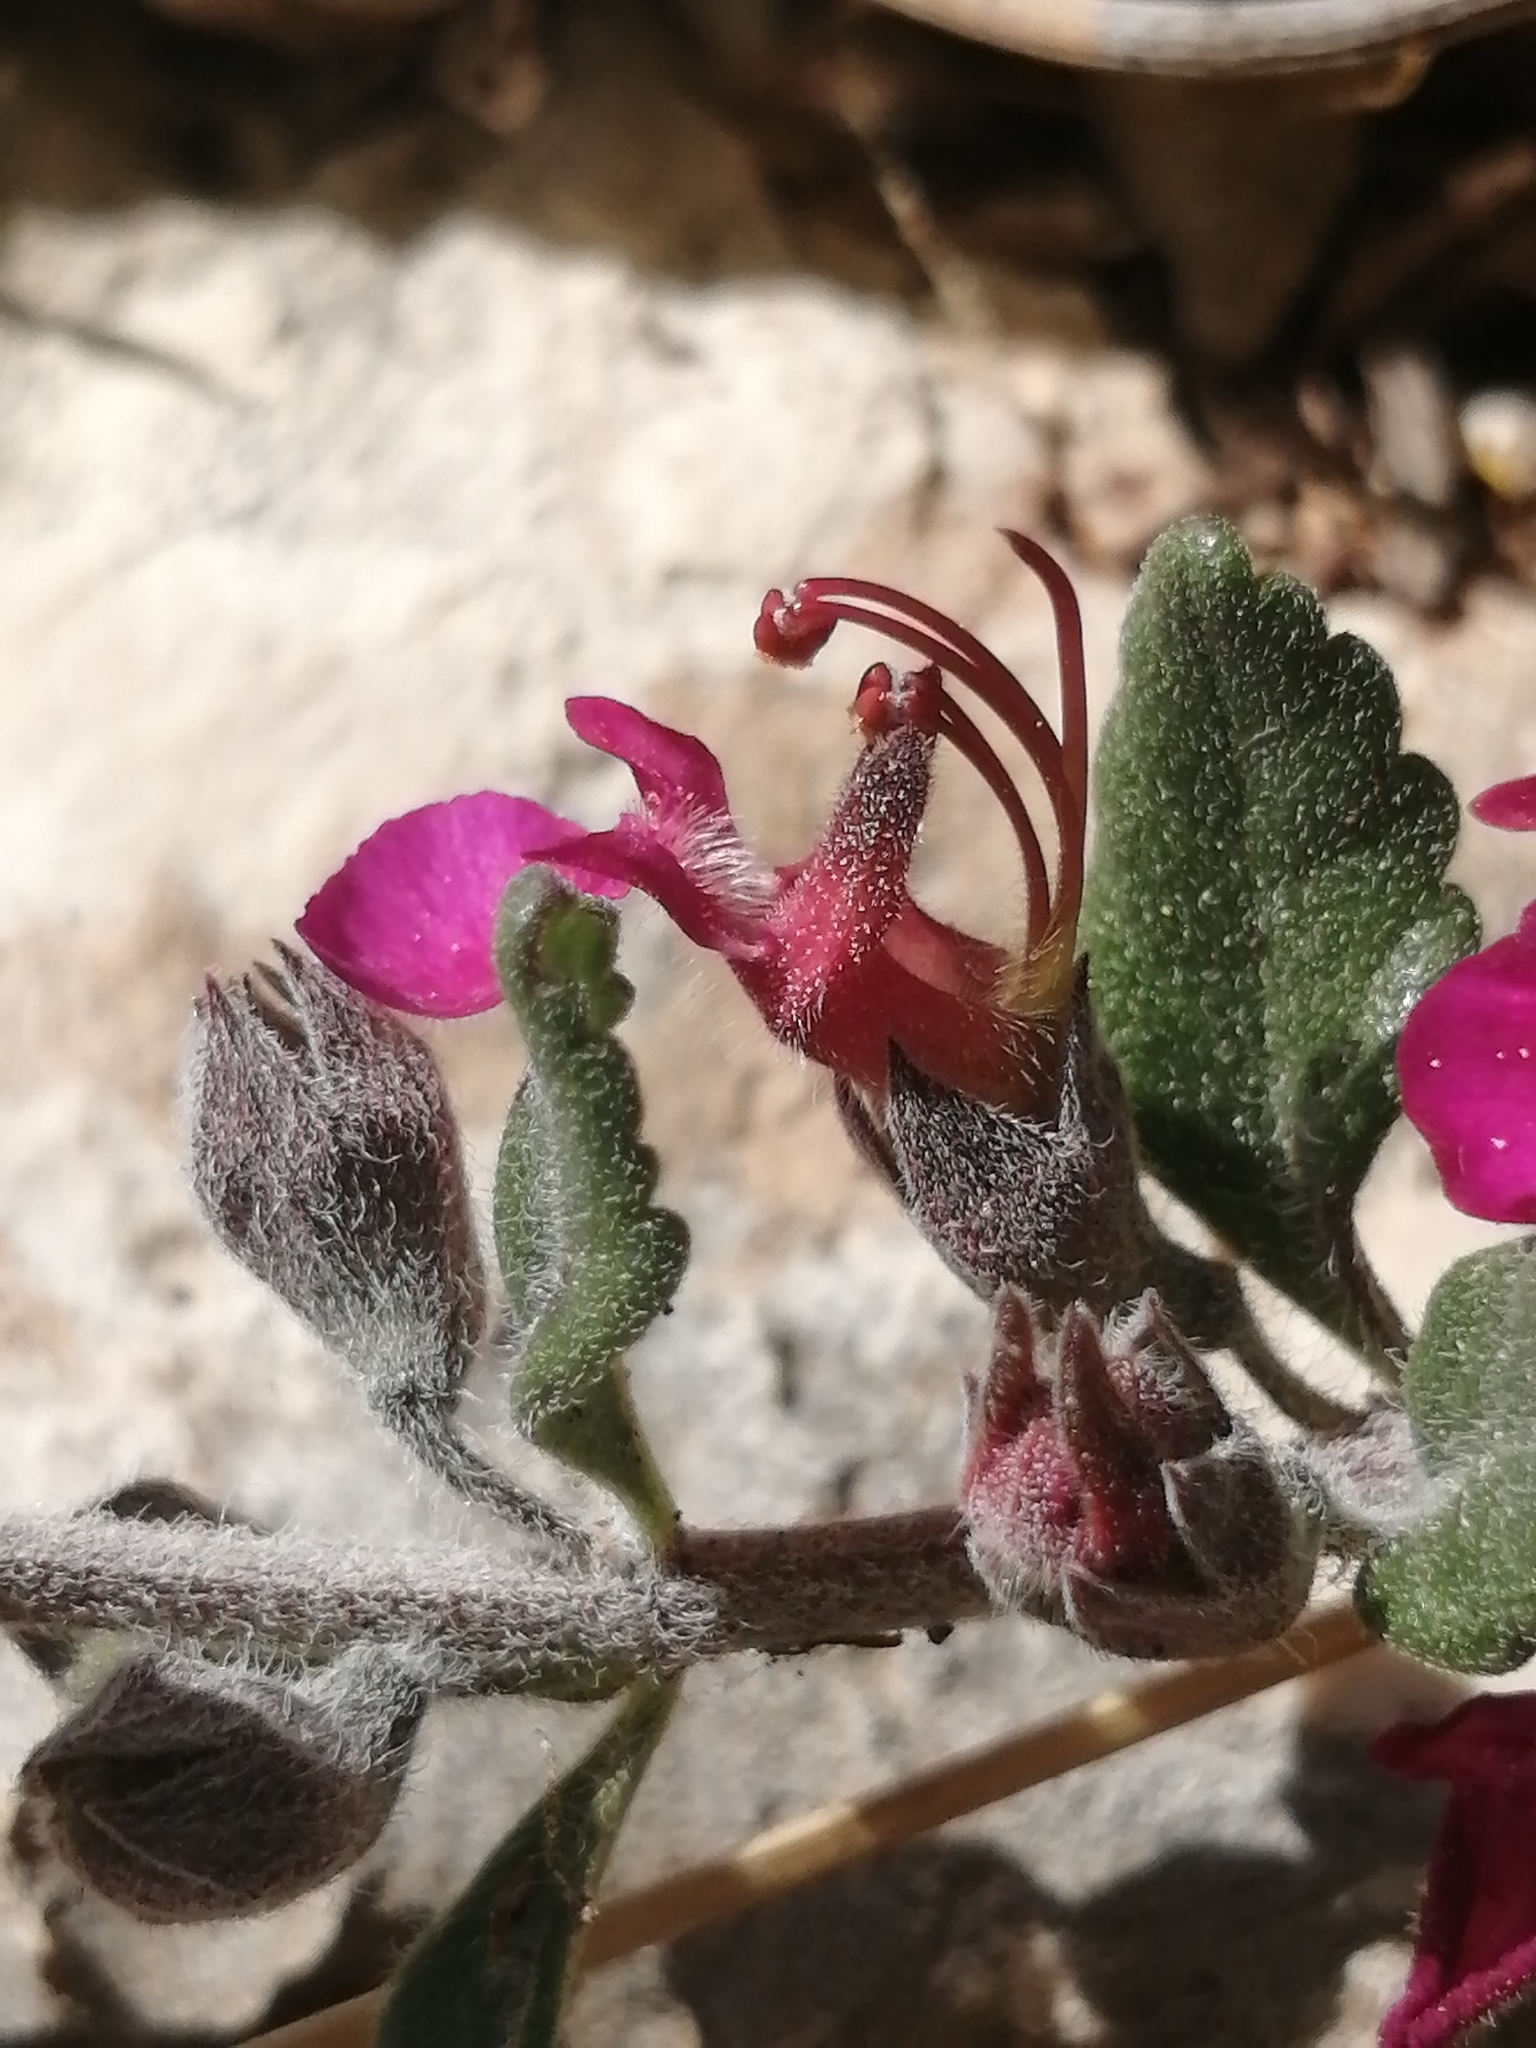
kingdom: Plantae
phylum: Tracheophyta
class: Magnoliopsida
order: Lamiales
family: Lamiaceae
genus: Teucrium
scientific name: Teucrium divaricatum
